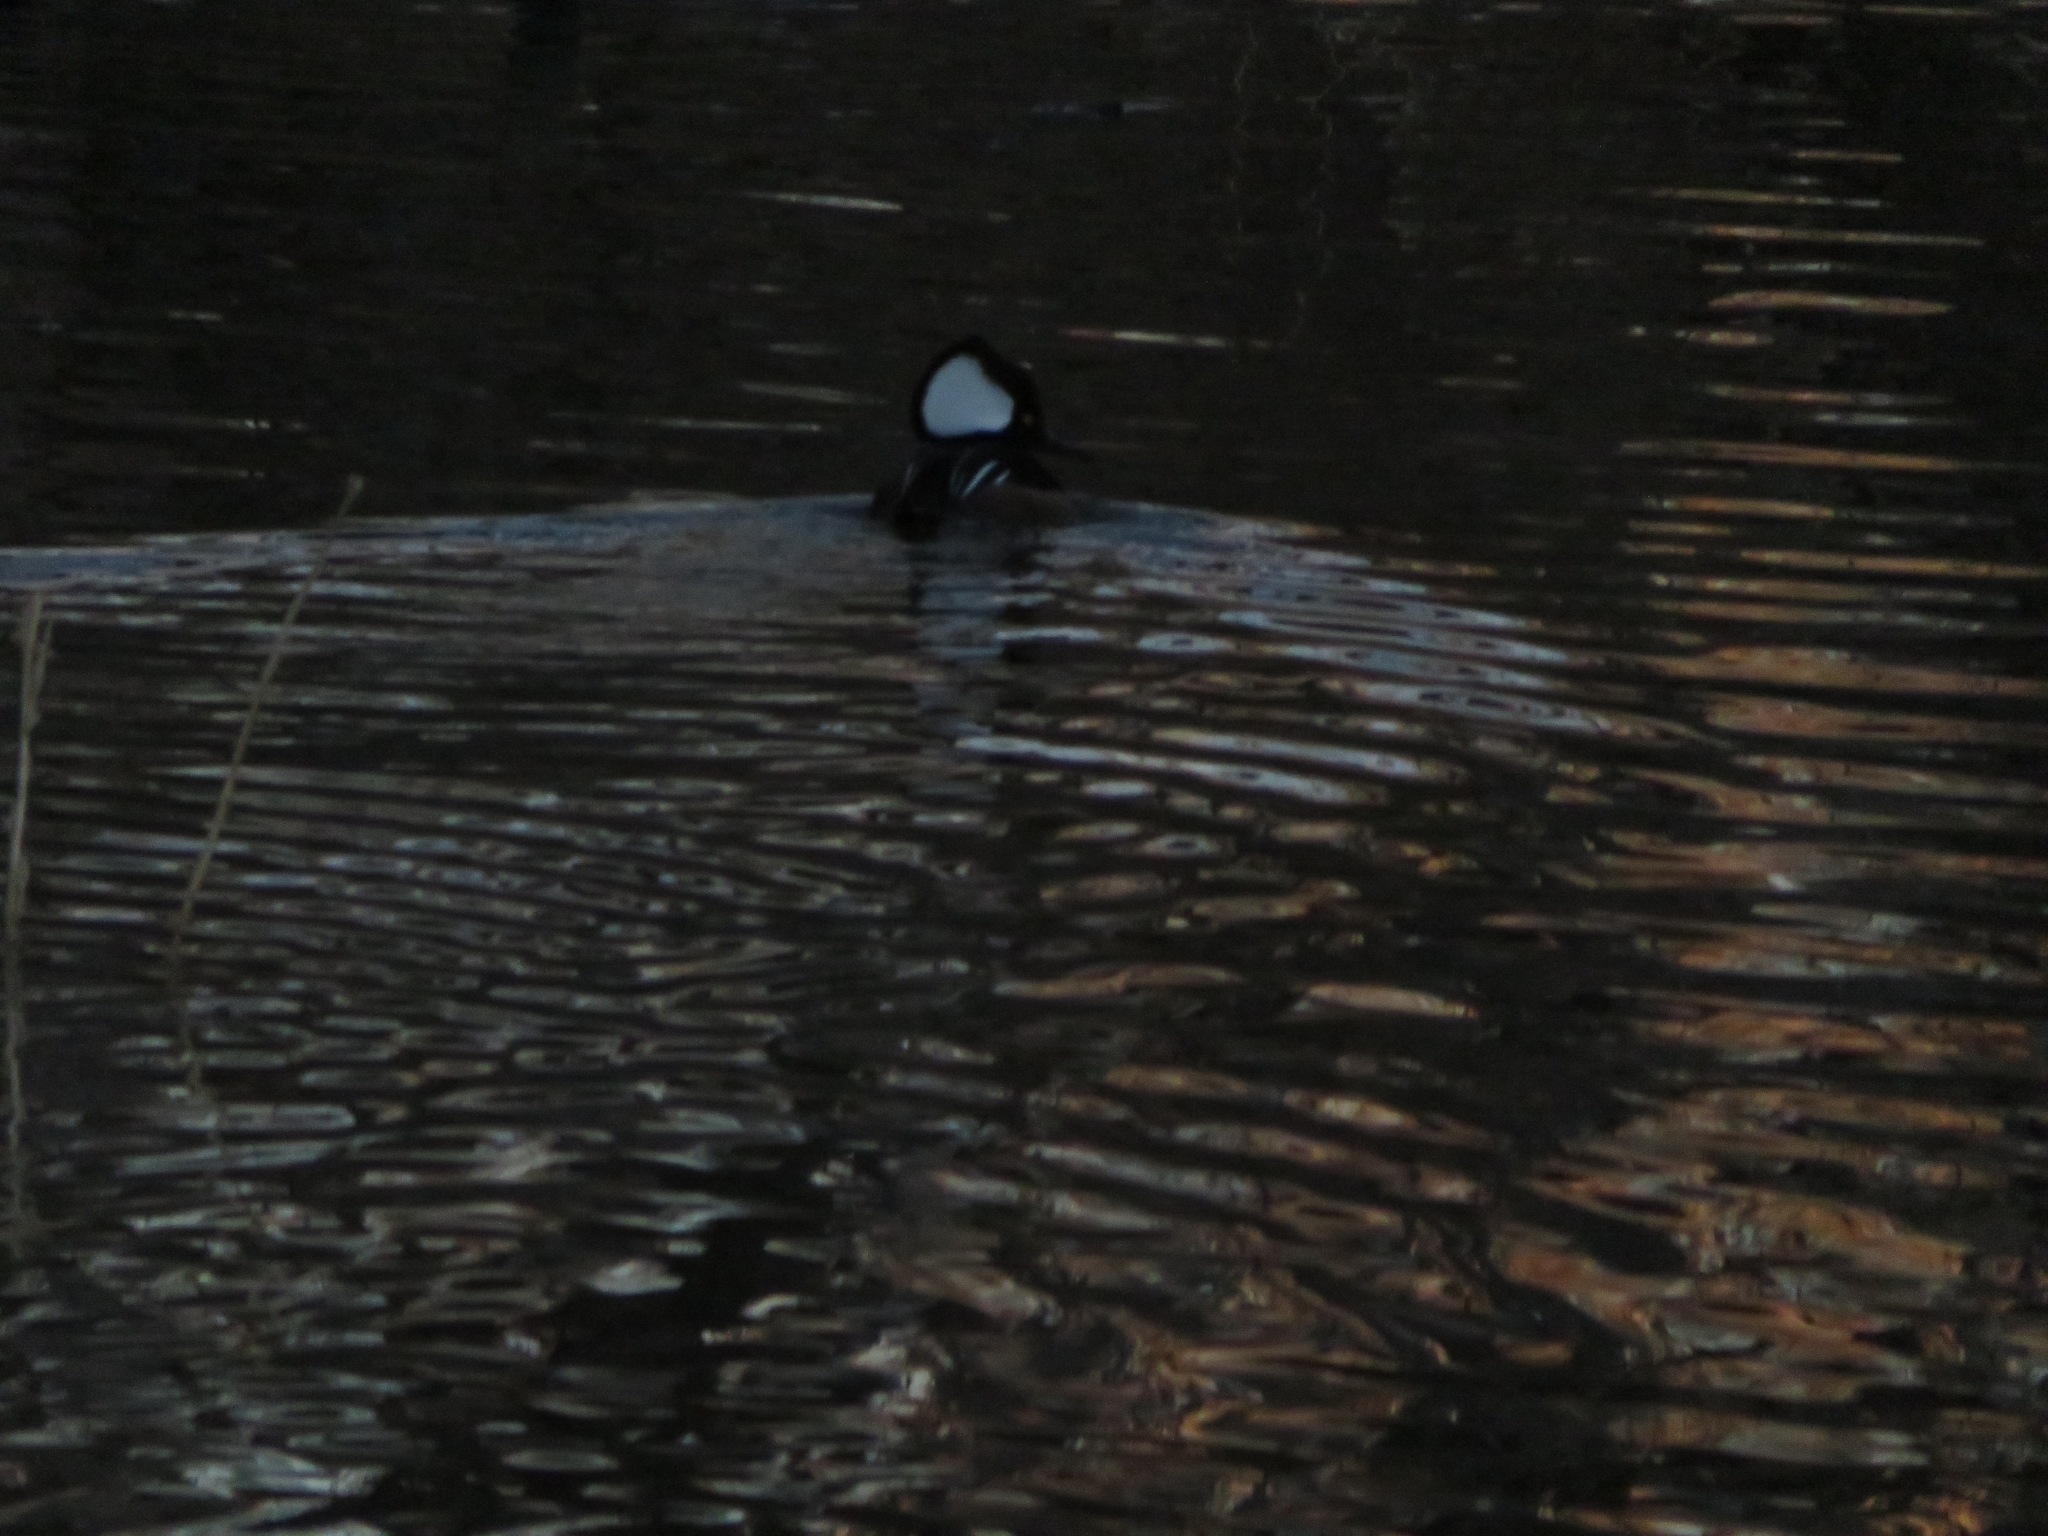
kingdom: Animalia
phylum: Chordata
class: Aves
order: Anseriformes
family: Anatidae
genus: Lophodytes
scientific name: Lophodytes cucullatus
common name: Hooded merganser
